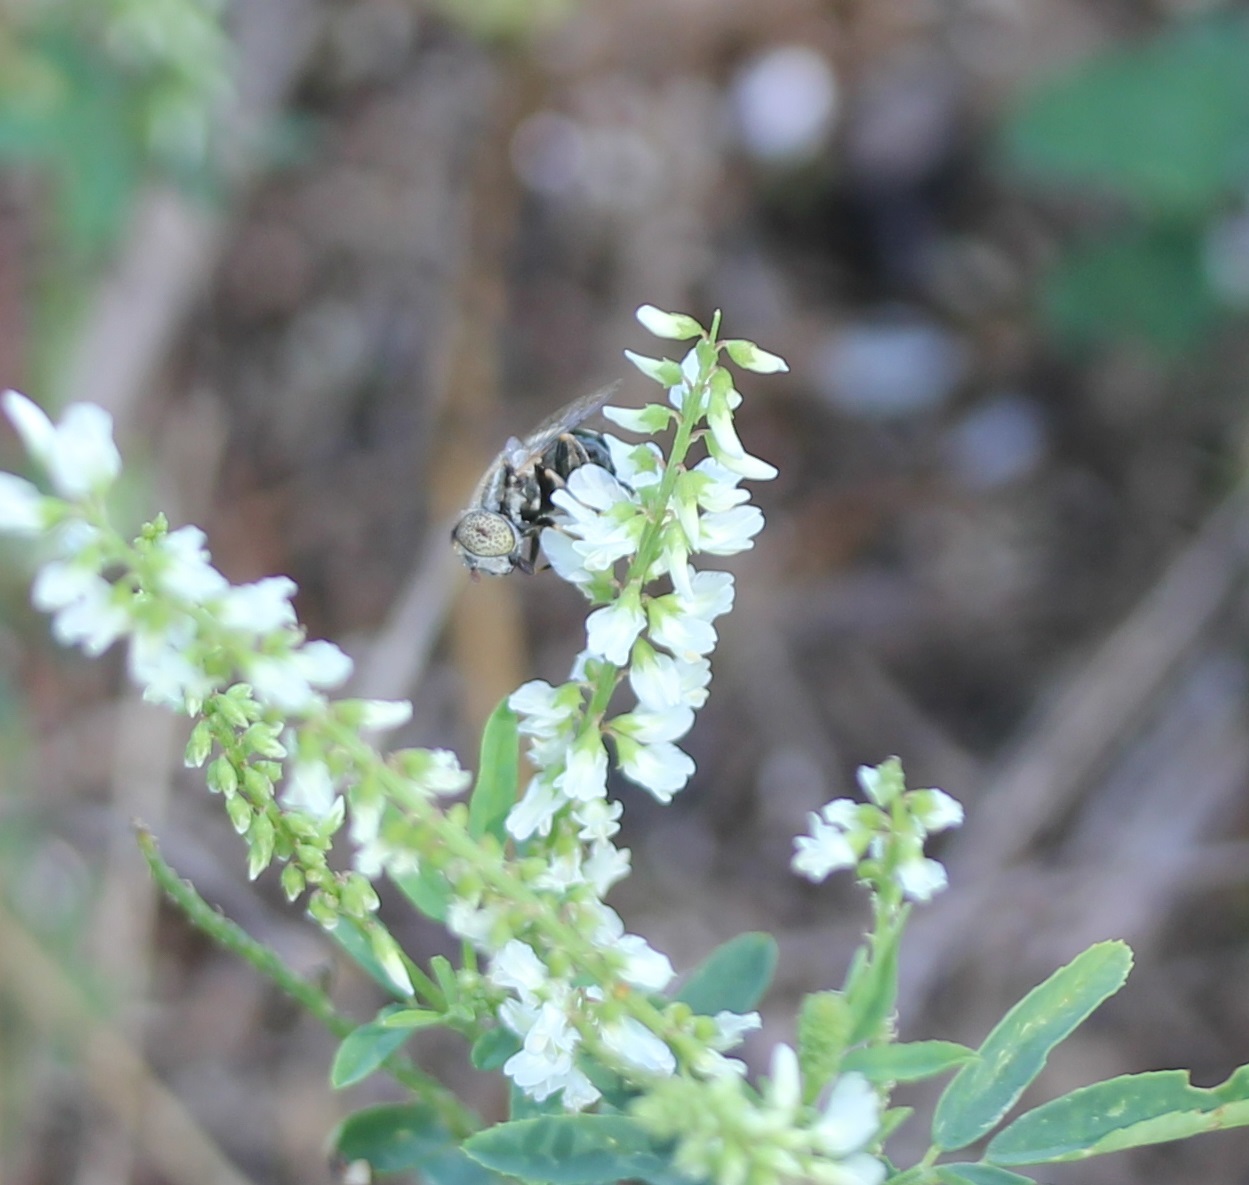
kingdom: Animalia
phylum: Arthropoda
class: Insecta
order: Diptera
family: Syrphidae
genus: Eristalinus
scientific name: Eristalinus aeneus
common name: Syrphid fly
